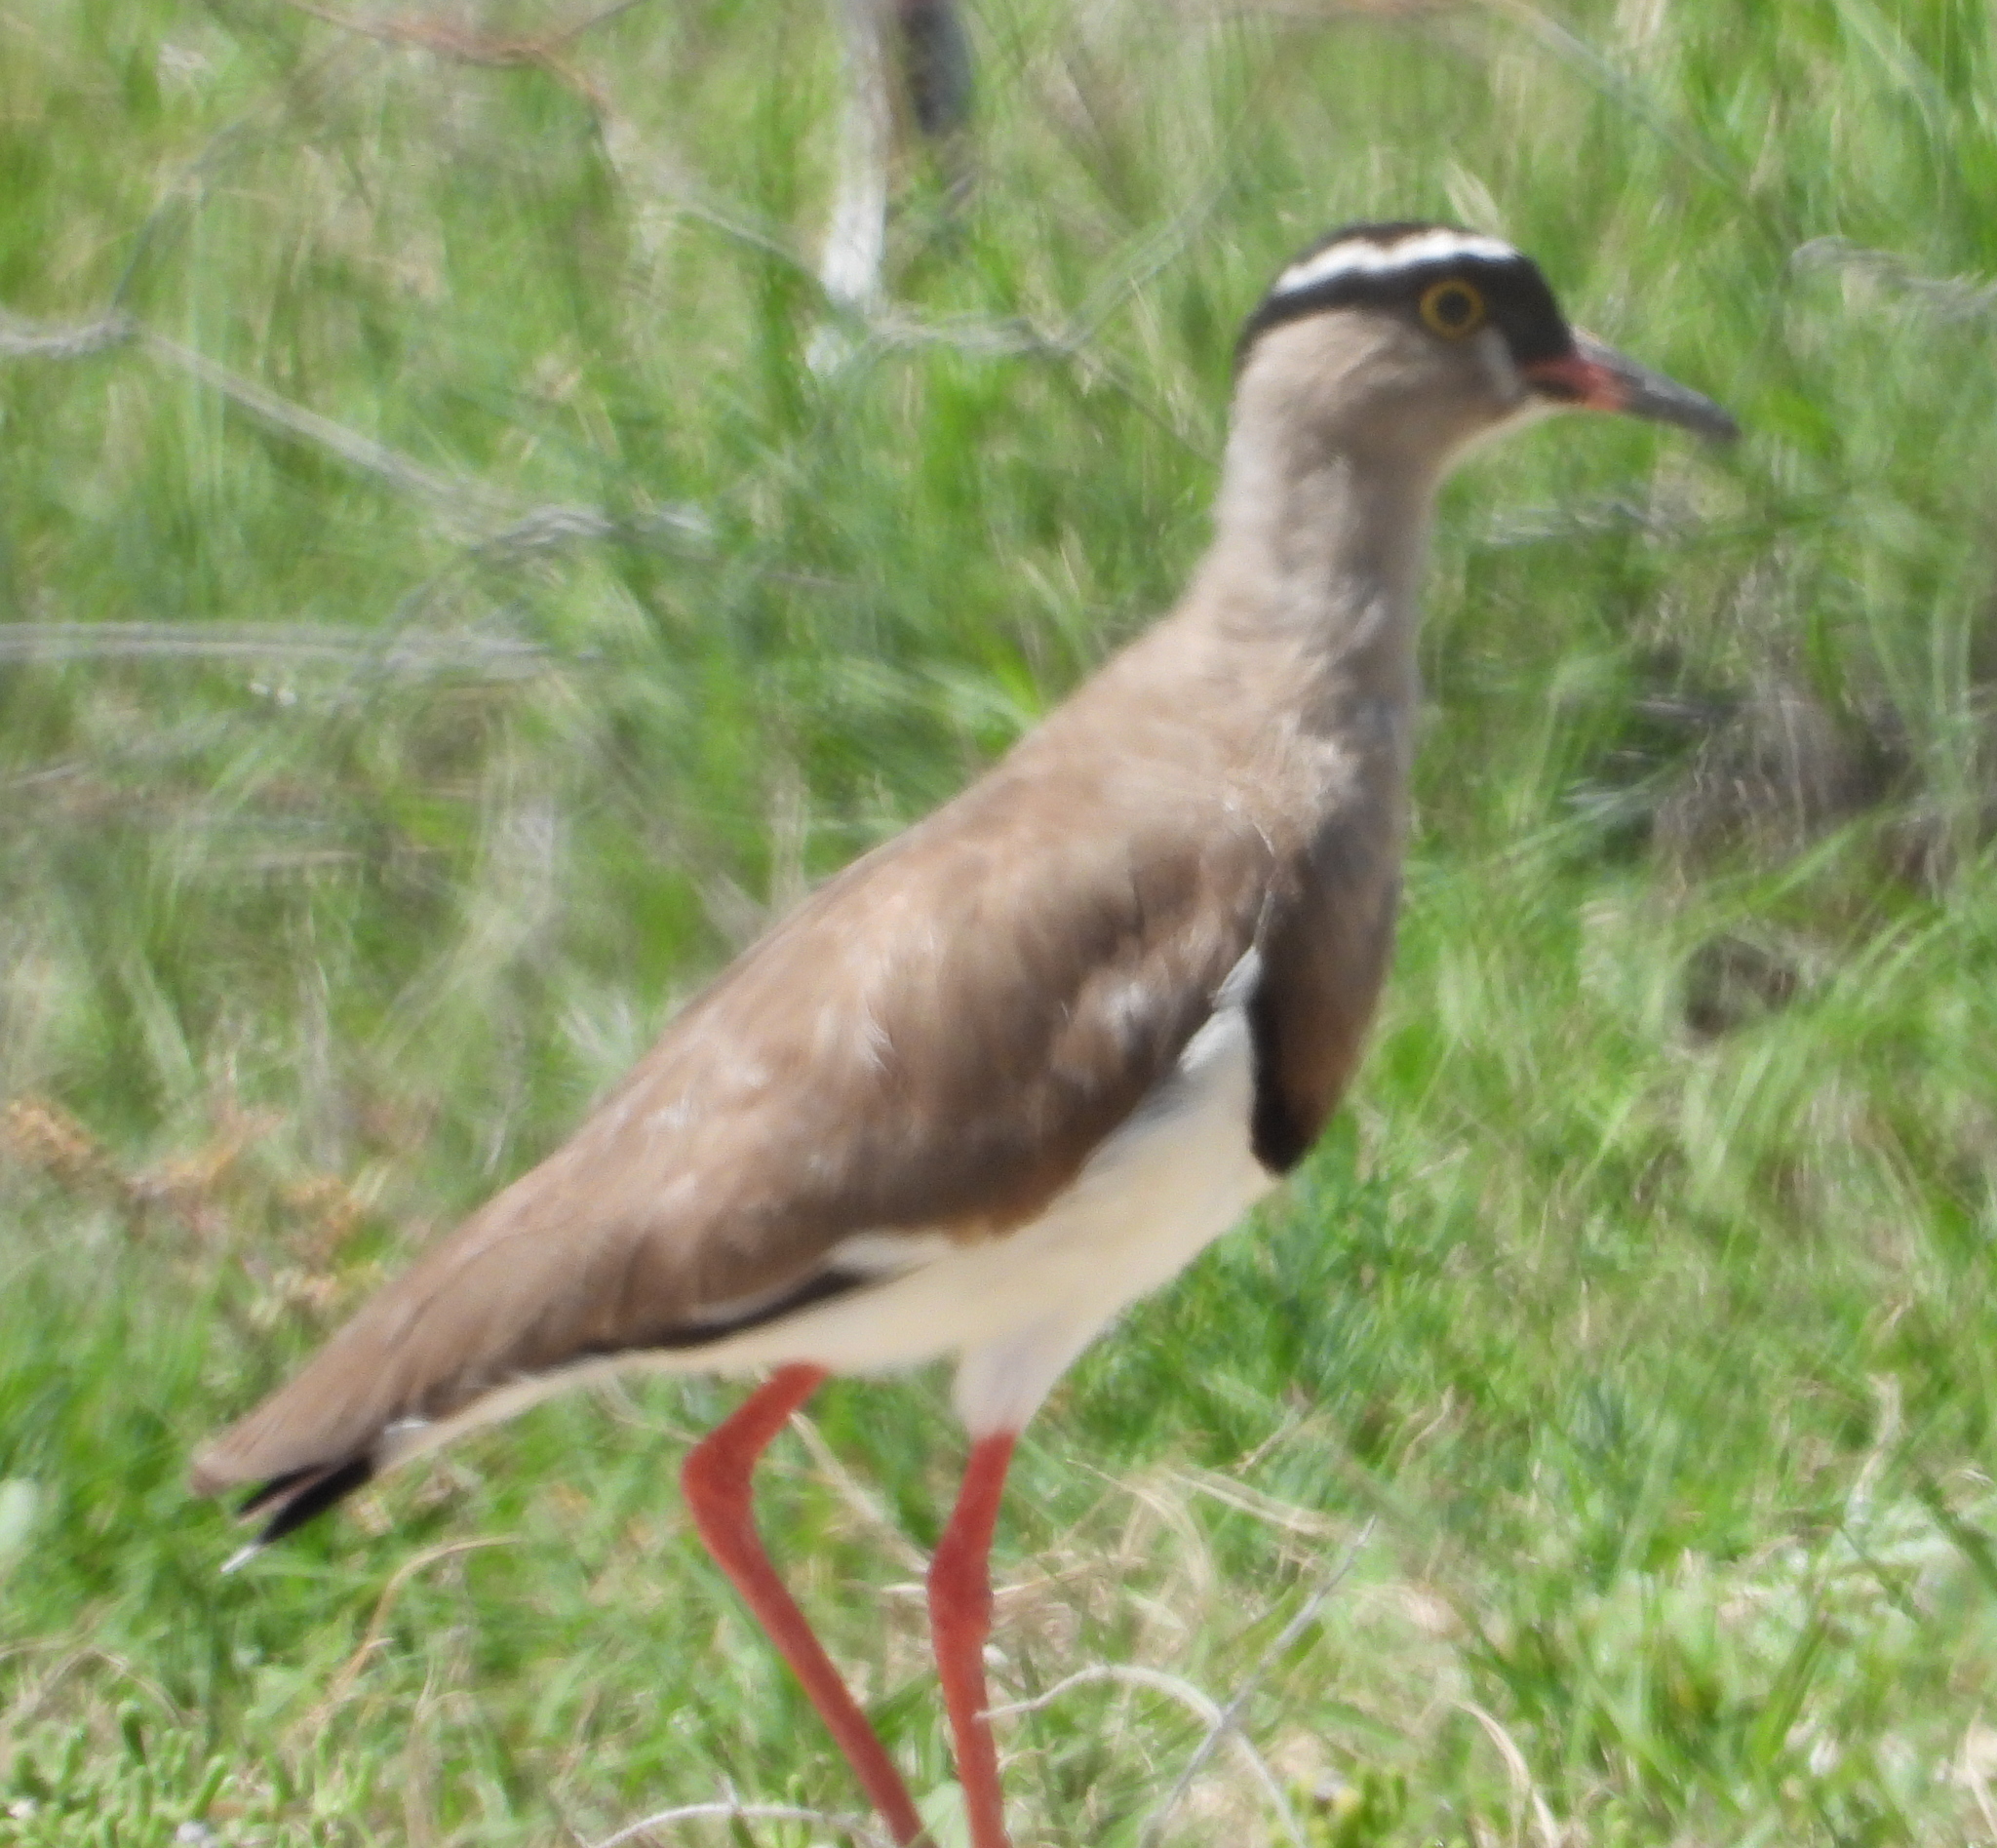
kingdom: Animalia
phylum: Chordata
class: Aves
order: Charadriiformes
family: Charadriidae
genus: Vanellus
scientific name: Vanellus coronatus
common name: Crowned lapwing
